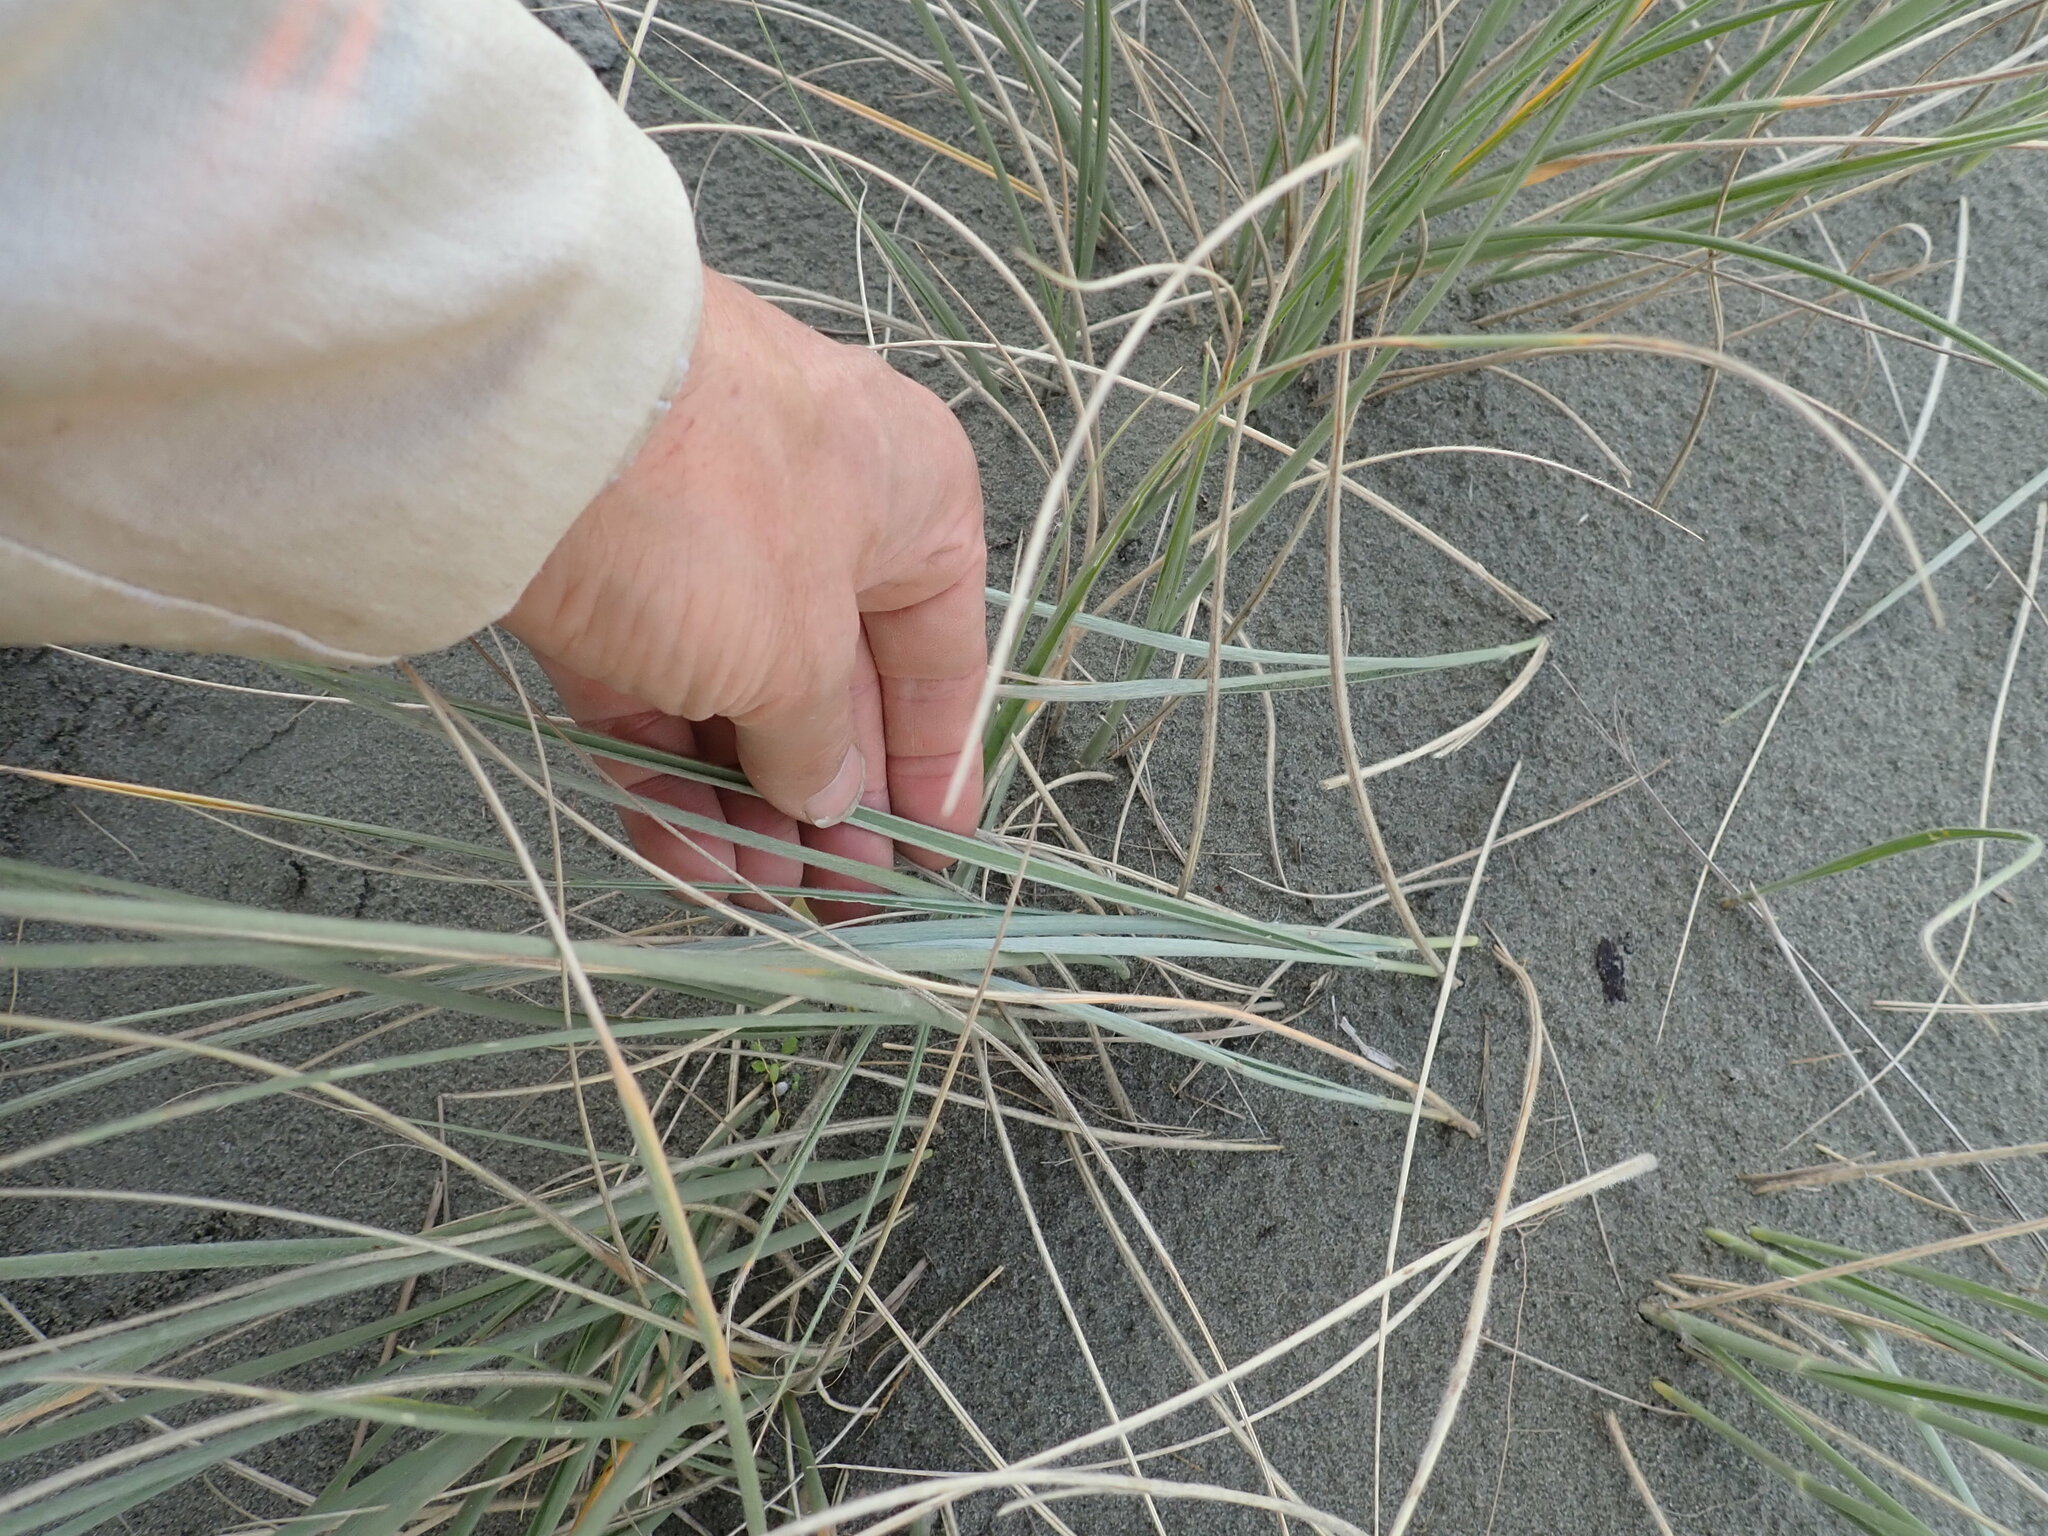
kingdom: Plantae
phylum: Tracheophyta
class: Liliopsida
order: Poales
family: Poaceae
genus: Spinifex
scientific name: Spinifex sericeus
